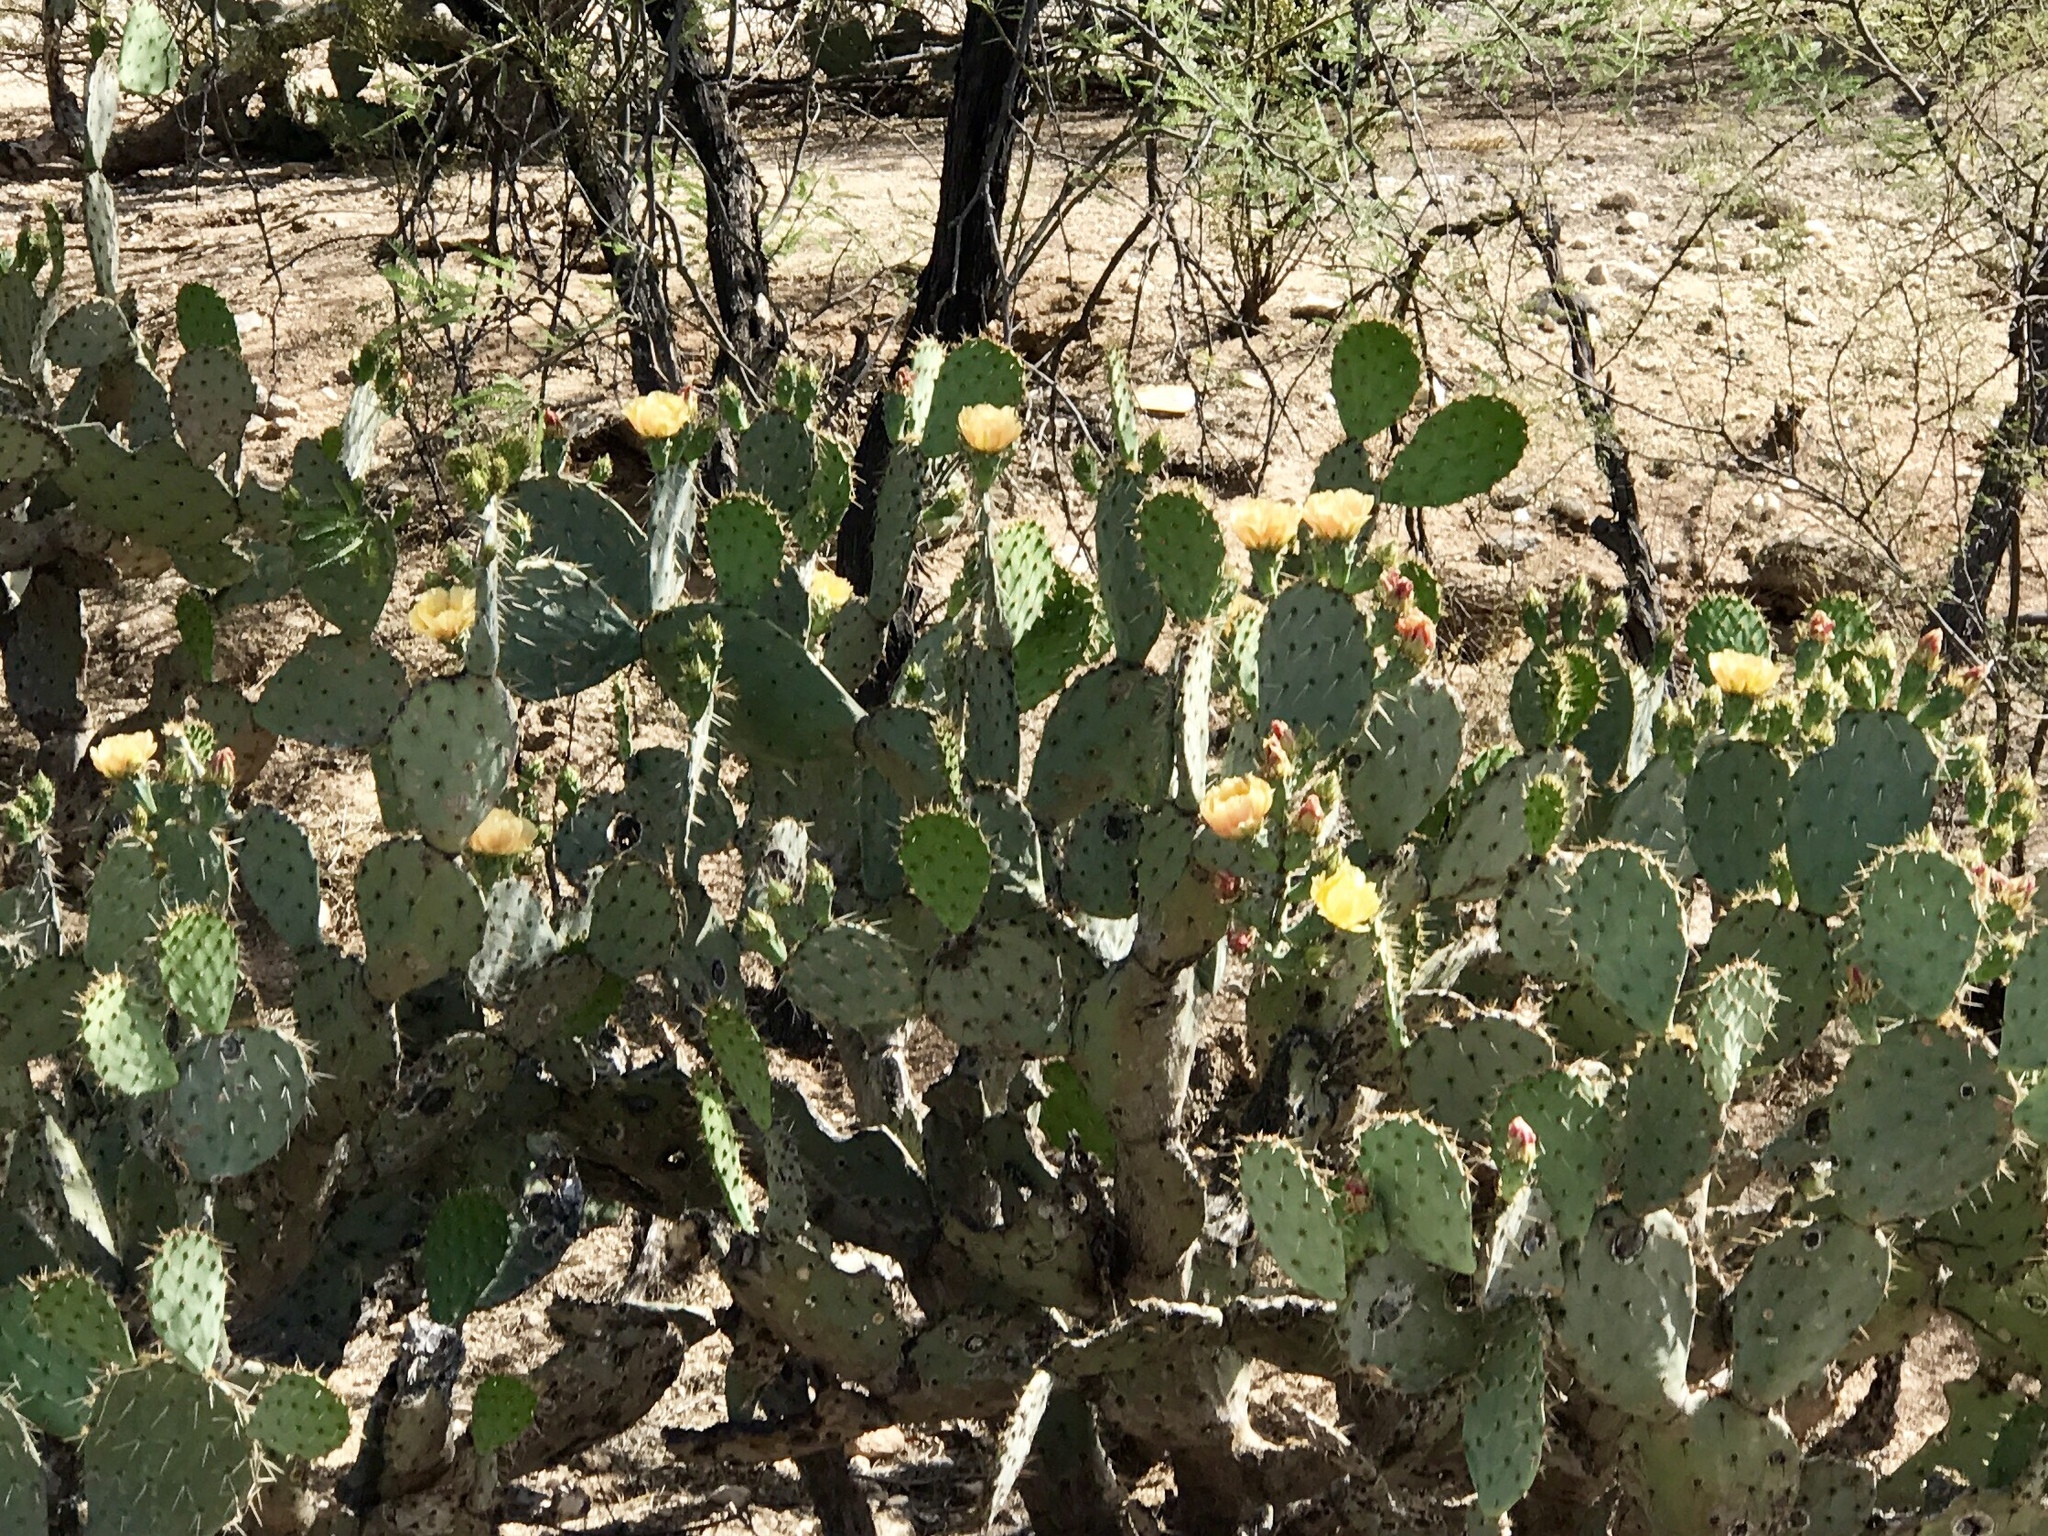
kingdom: Plantae
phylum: Tracheophyta
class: Magnoliopsida
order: Caryophyllales
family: Cactaceae
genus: Opuntia
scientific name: Opuntia engelmannii
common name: Cactus-apple
